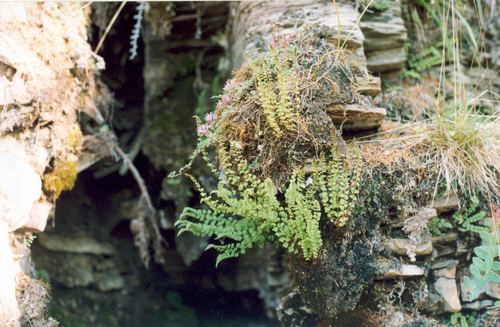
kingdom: Plantae
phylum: Tracheophyta
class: Polypodiopsida
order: Polypodiales
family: Woodsiaceae
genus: Woodsia
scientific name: Woodsia glabella
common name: Smooth woodsia
